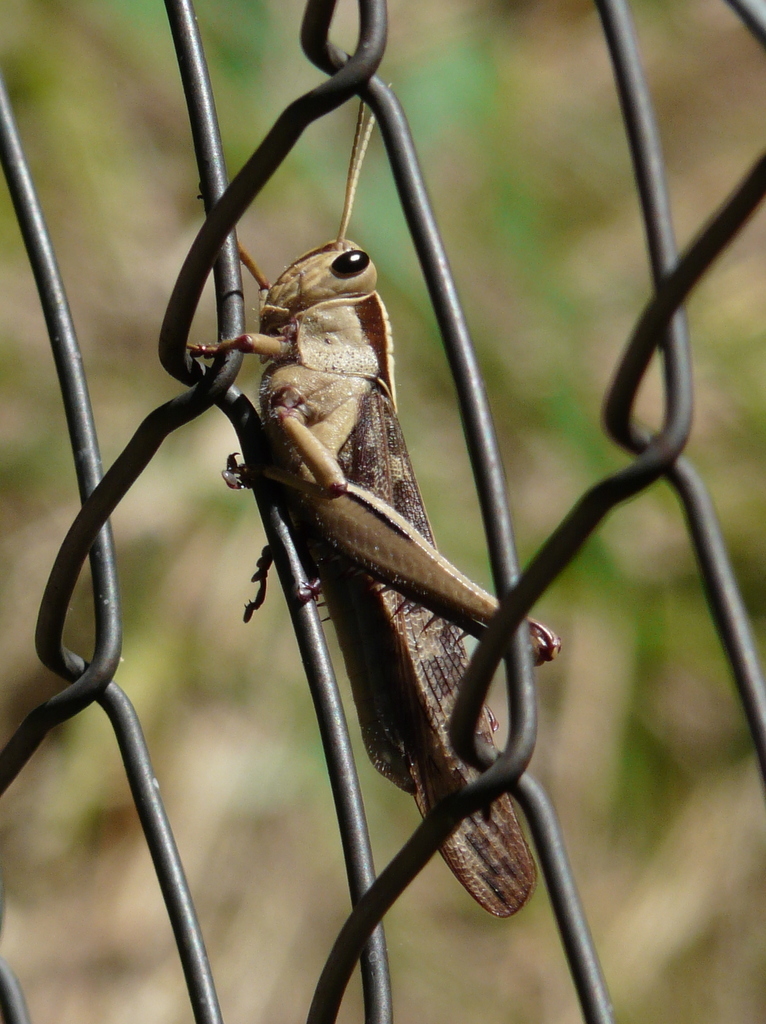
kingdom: Animalia
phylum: Arthropoda
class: Insecta
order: Orthoptera
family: Acrididae
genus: Acanthacris
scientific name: Acanthacris ruficornis
